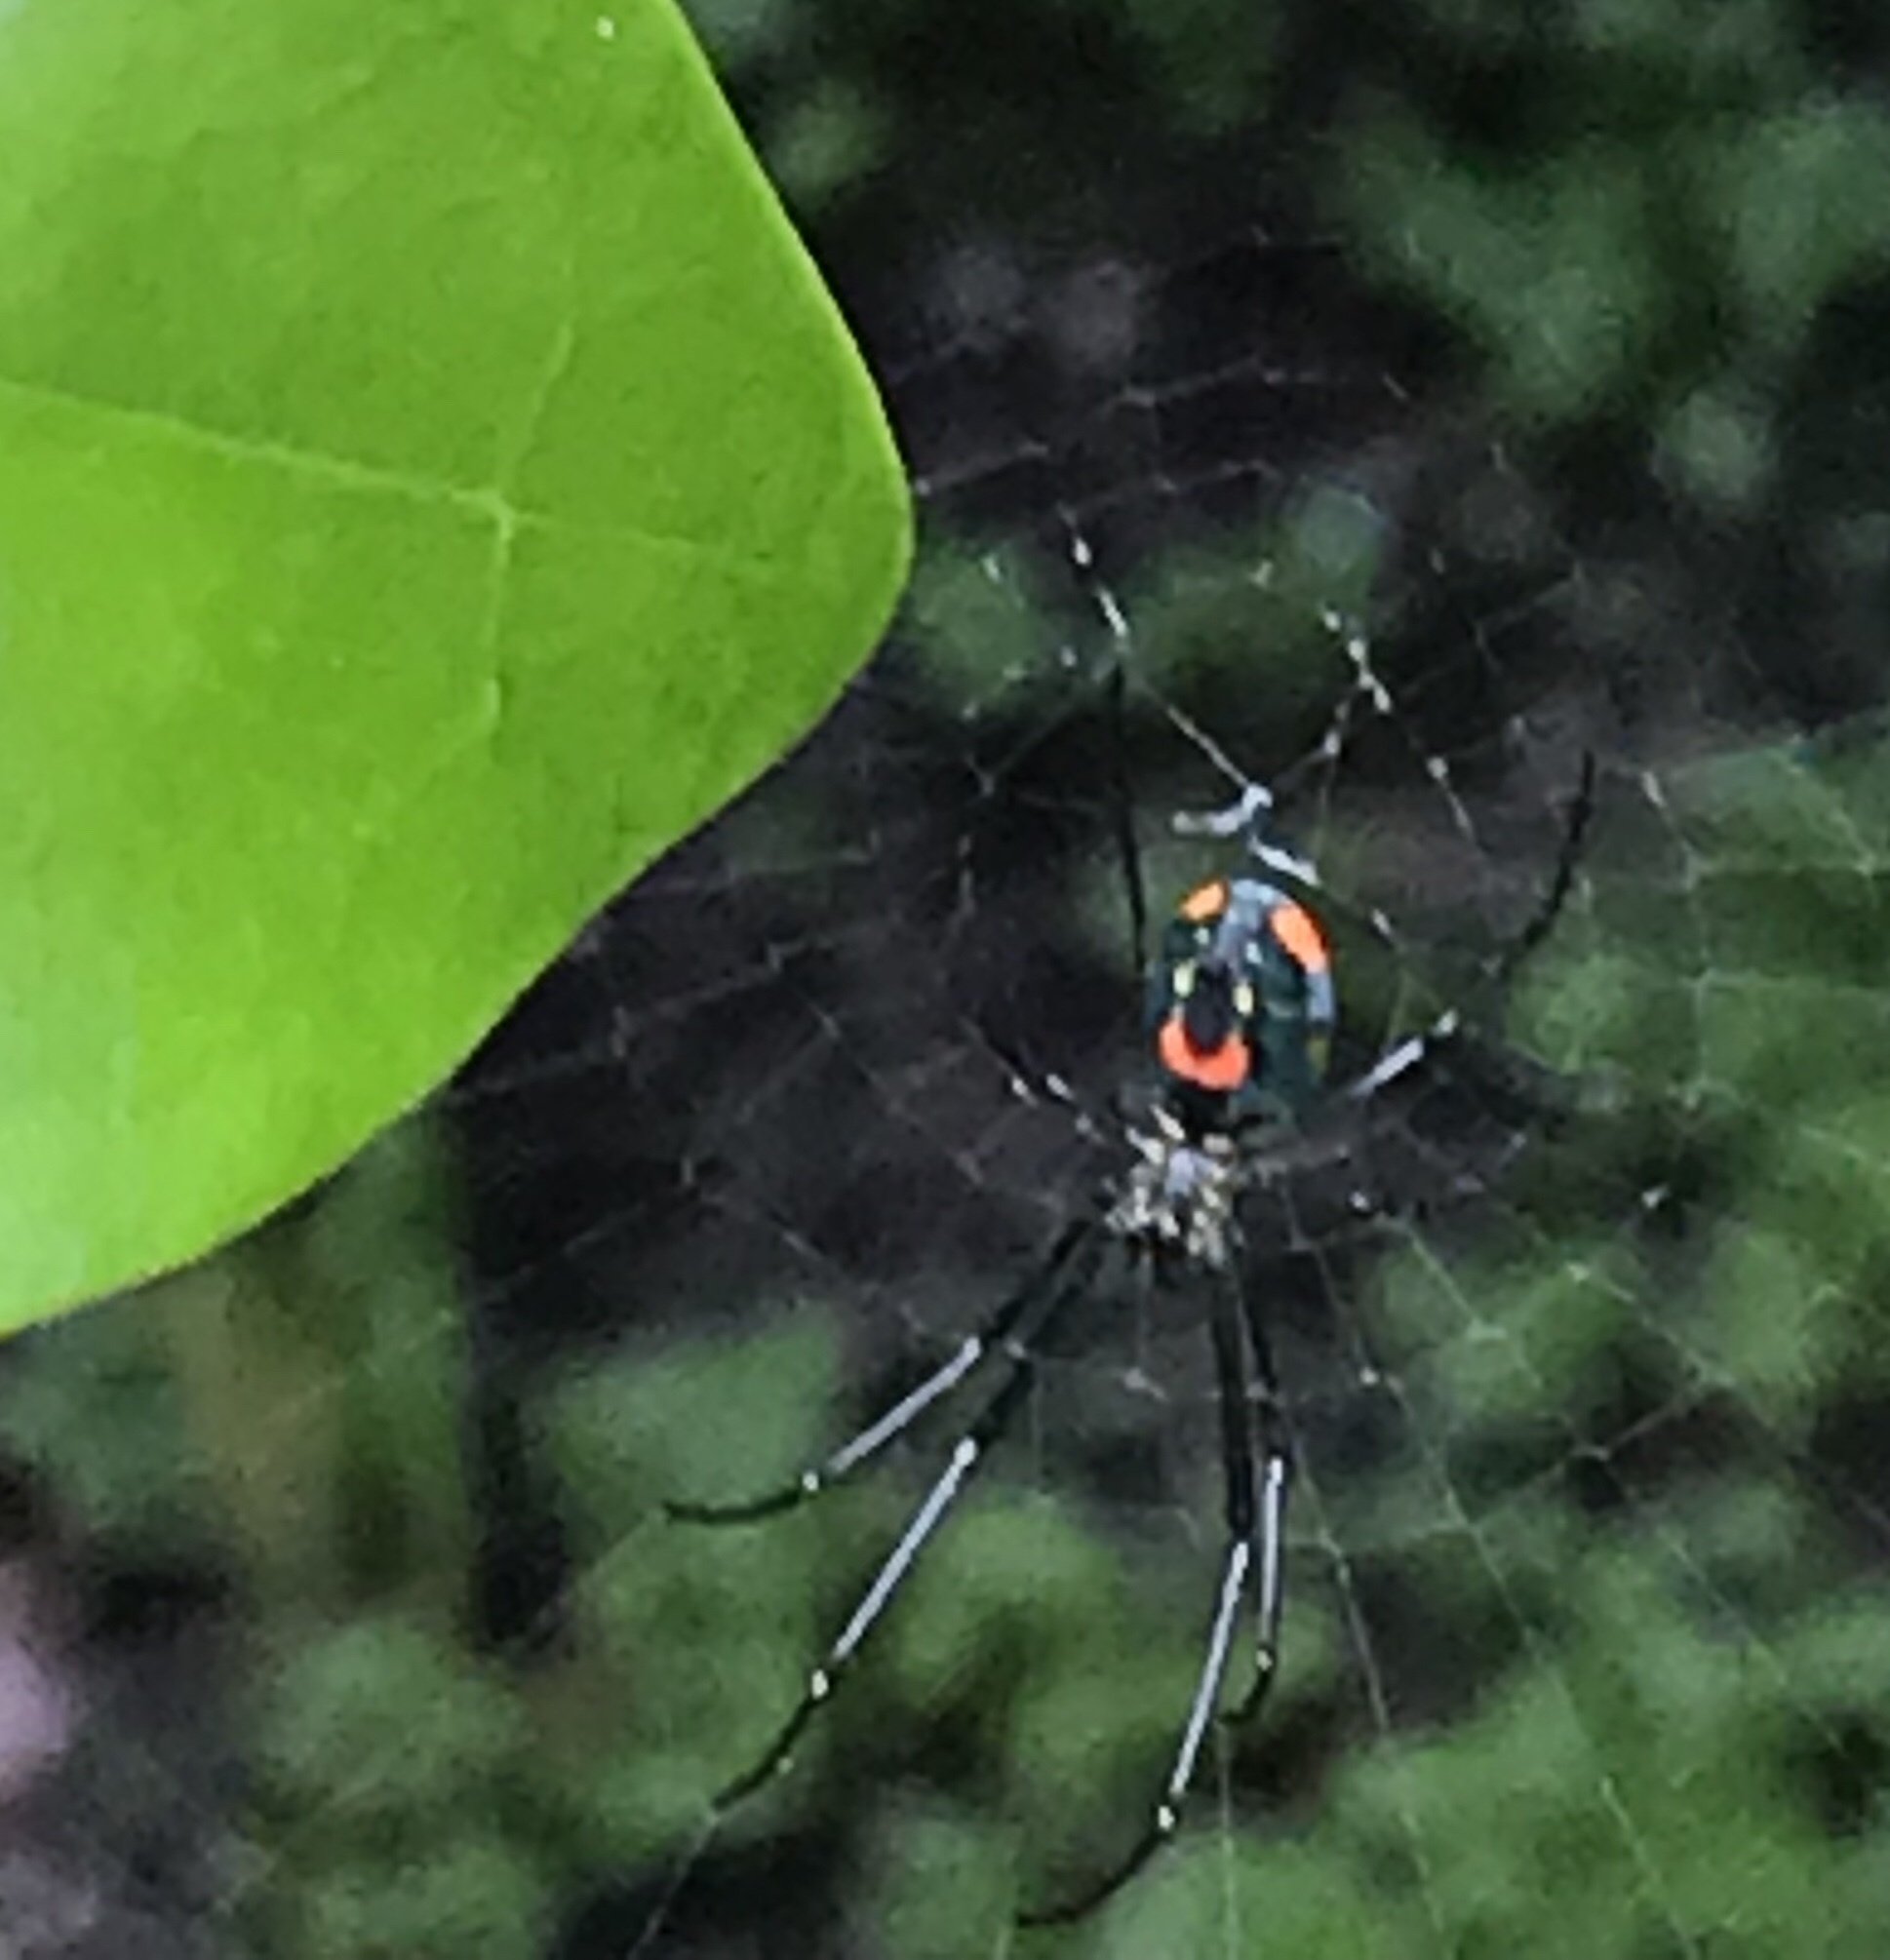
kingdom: Animalia
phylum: Arthropoda
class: Arachnida
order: Araneae
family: Tetragnathidae
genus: Leucauge
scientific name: Leucauge argyrobapta
